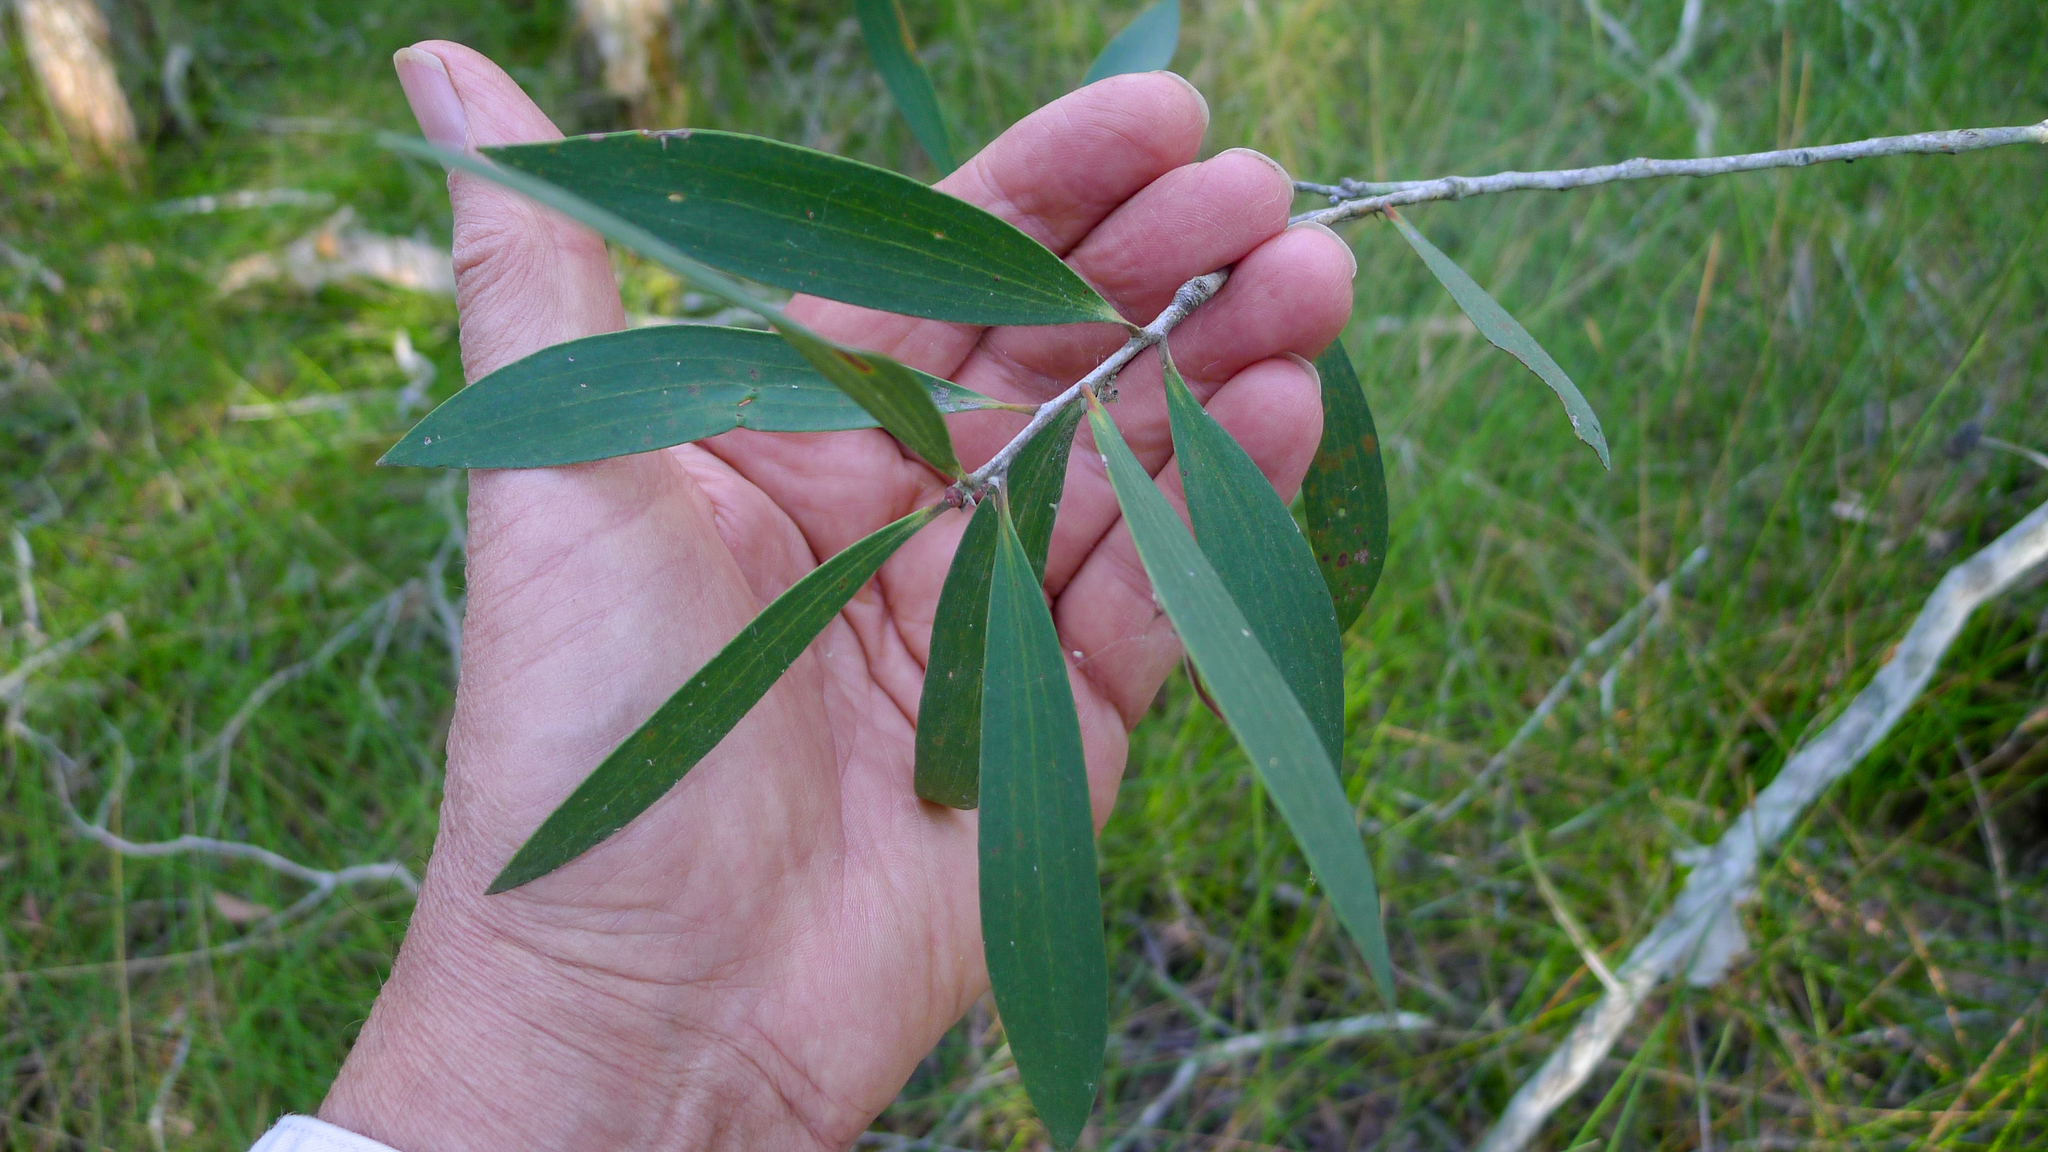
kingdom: Plantae
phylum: Tracheophyta
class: Magnoliopsida
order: Myrtales
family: Myrtaceae
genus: Melaleuca
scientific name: Melaleuca quinquenervia
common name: Punktree
